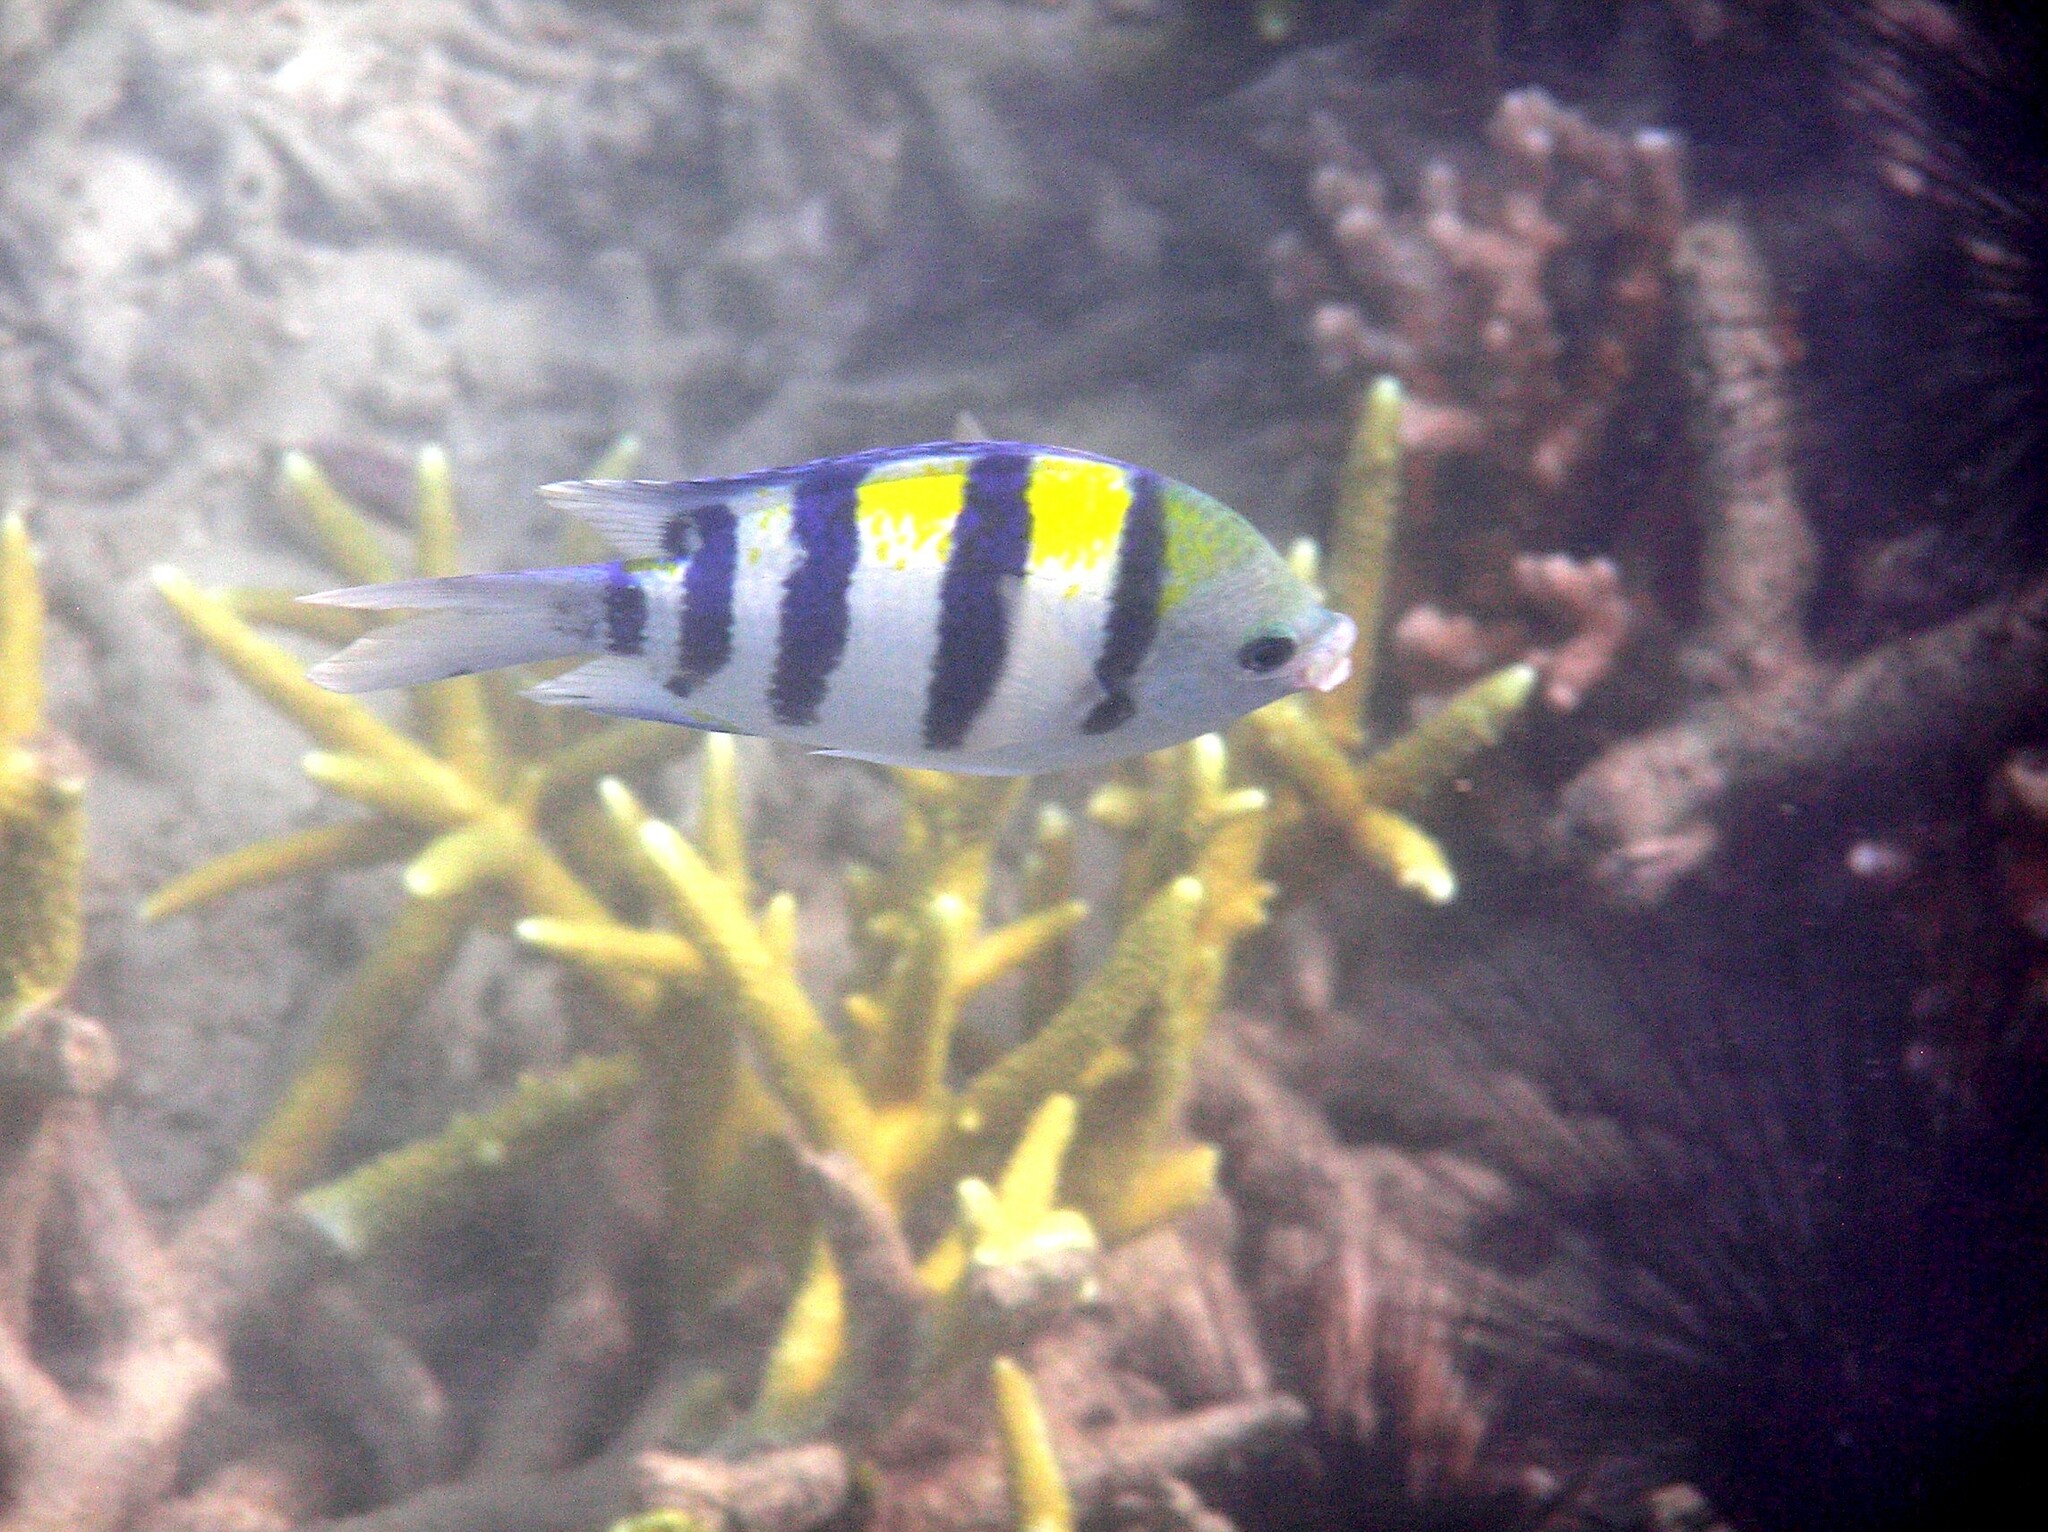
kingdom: Animalia
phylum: Chordata
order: Perciformes
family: Pomacentridae
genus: Abudefduf
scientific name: Abudefduf vaigiensis
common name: Indo-pacific sergeant
